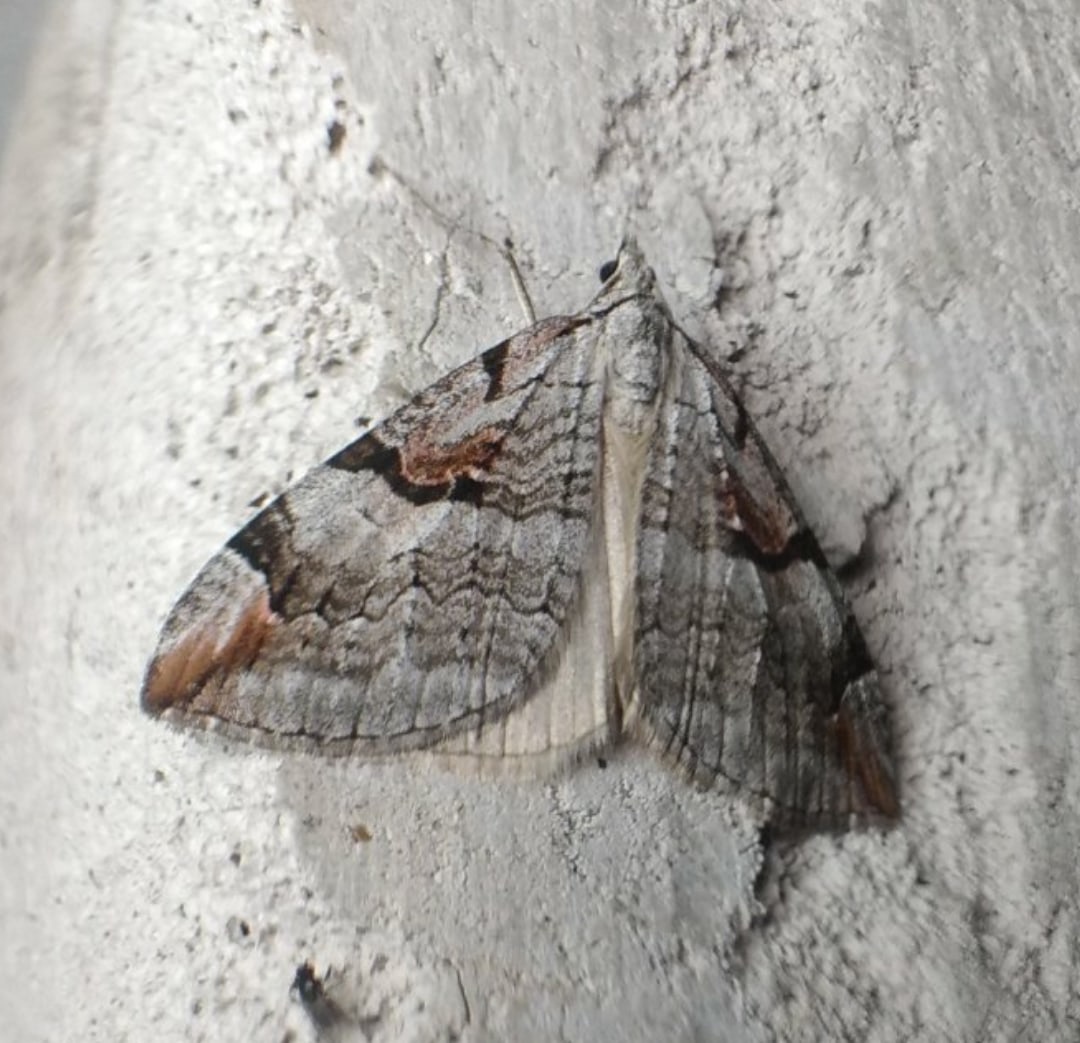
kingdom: Animalia
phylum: Arthropoda
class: Insecta
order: Lepidoptera
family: Geometridae
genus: Aplocera
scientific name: Aplocera praeformata
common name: Purple treble-bar
